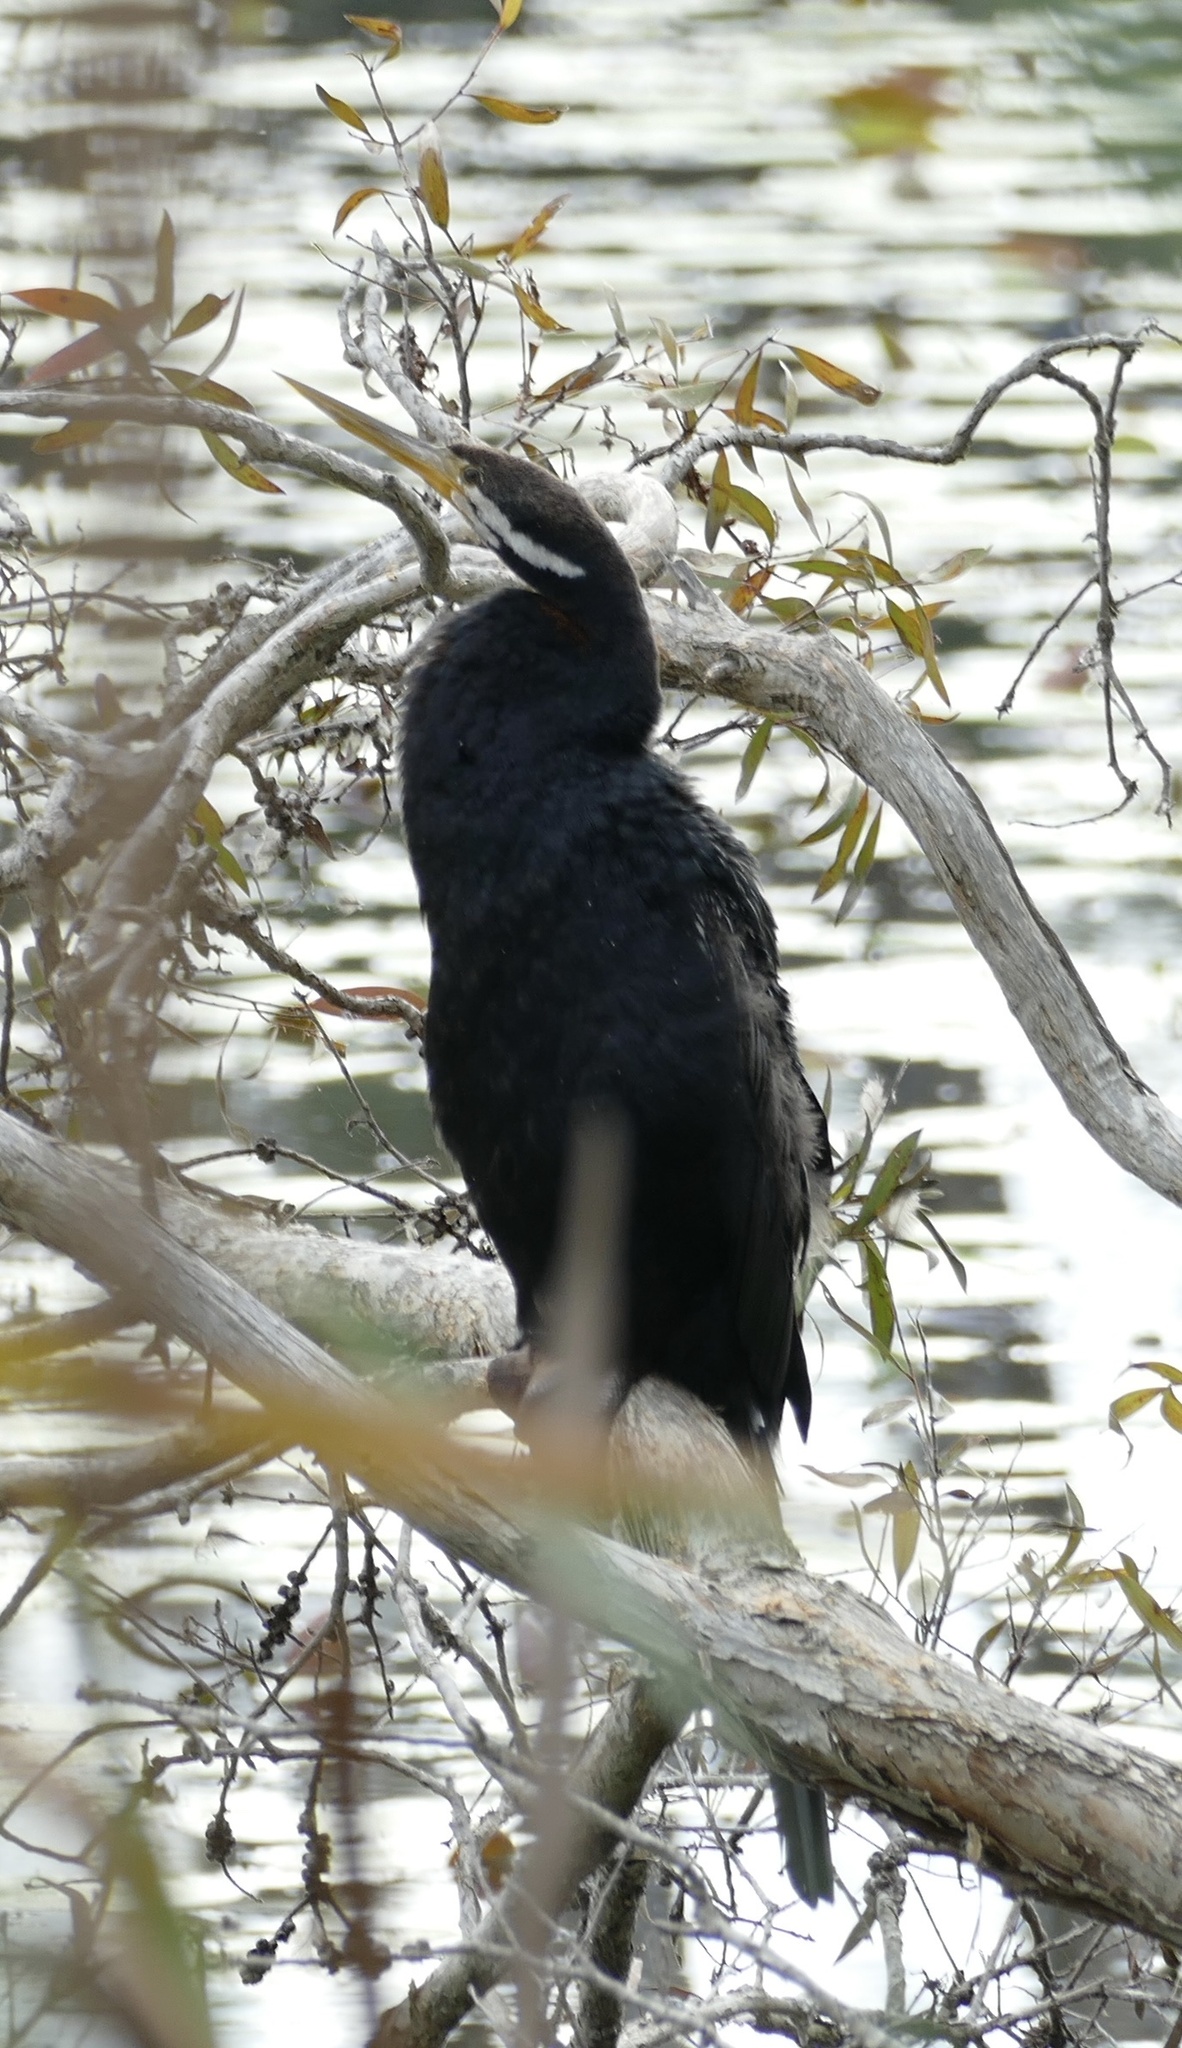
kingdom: Animalia
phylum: Chordata
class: Aves
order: Suliformes
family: Anhingidae
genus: Anhinga
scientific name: Anhinga novaehollandiae
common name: Australasian darter
